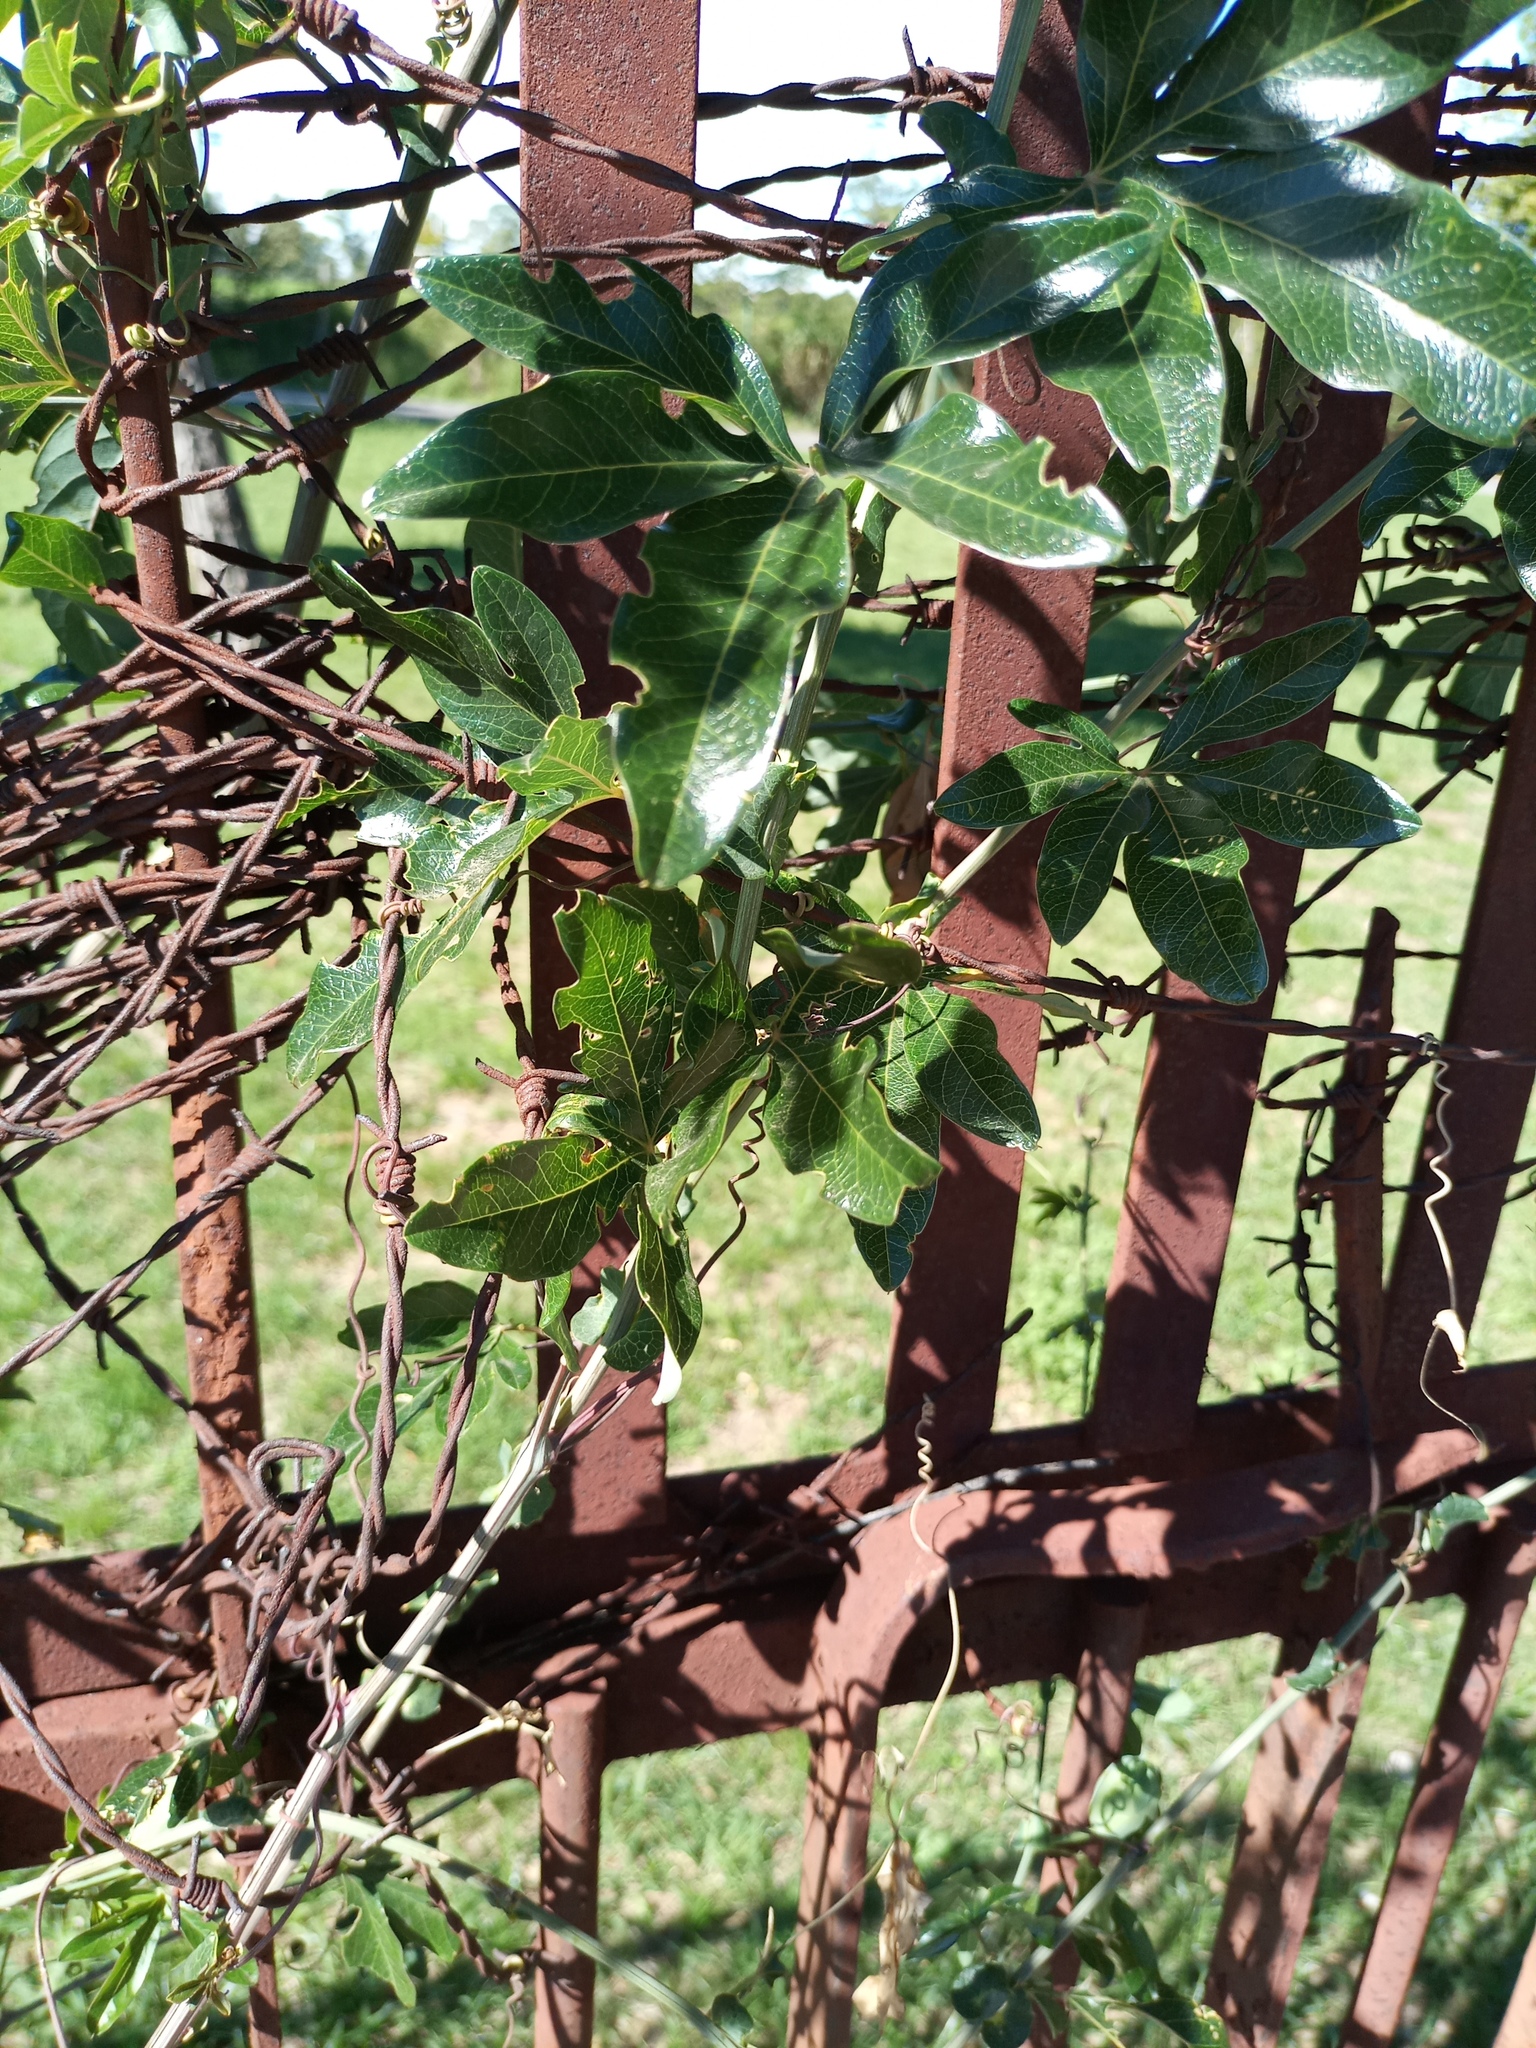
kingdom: Plantae
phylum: Tracheophyta
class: Magnoliopsida
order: Malpighiales
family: Passifloraceae
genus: Passiflora
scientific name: Passiflora caerulea
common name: Blue passionflower
